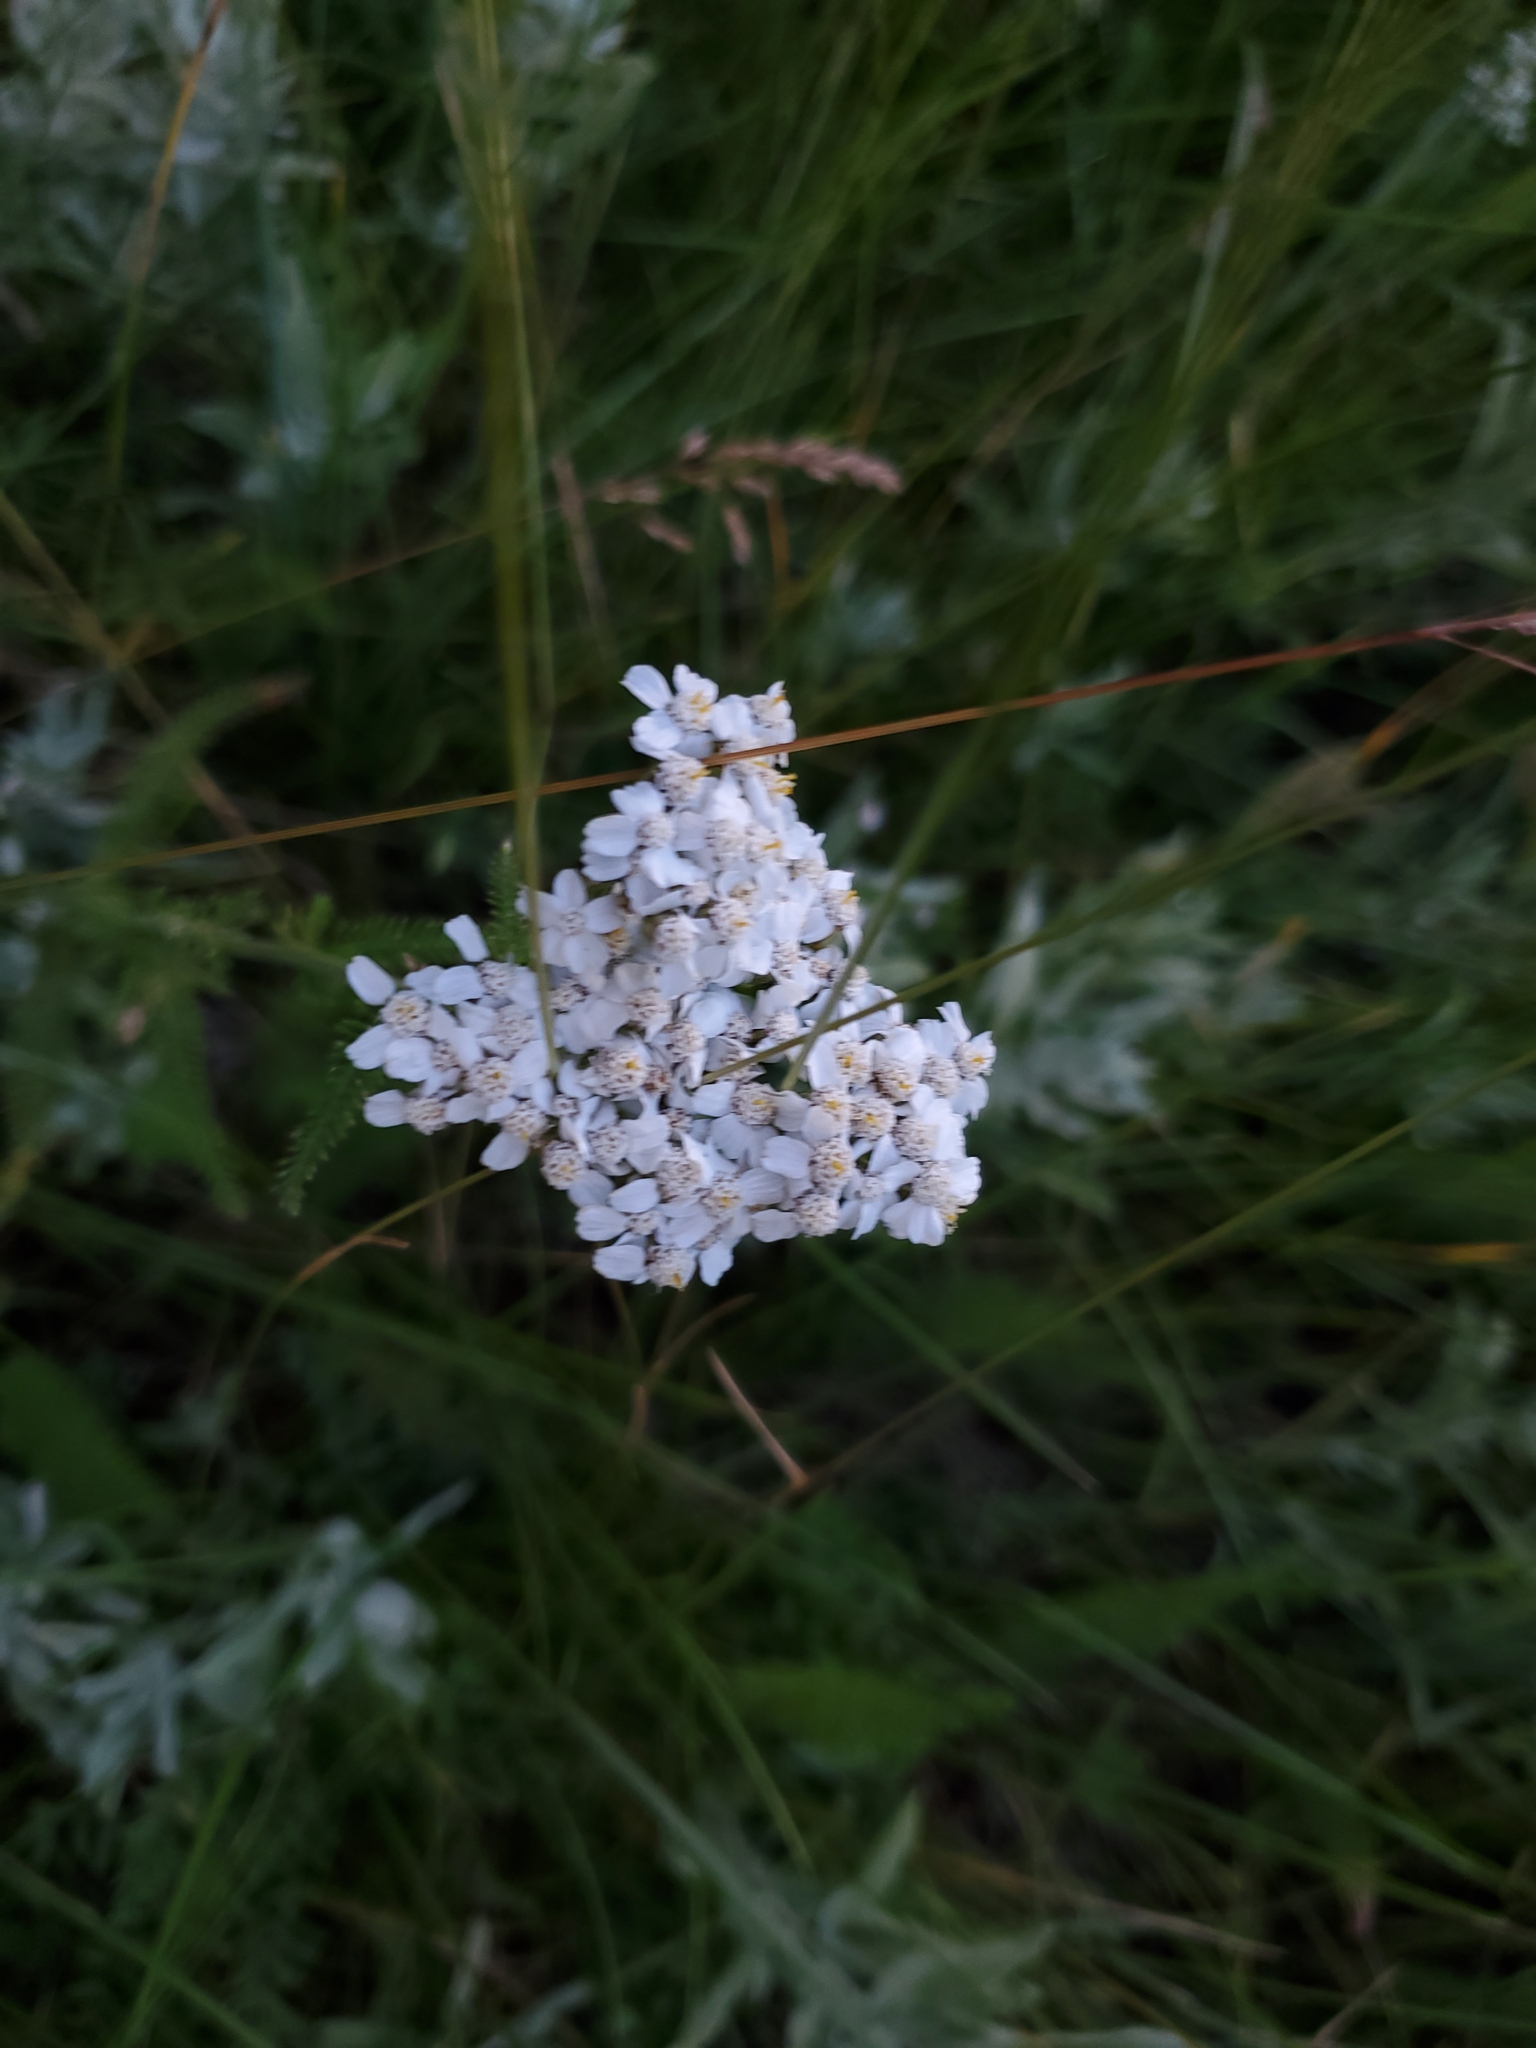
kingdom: Plantae
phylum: Tracheophyta
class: Magnoliopsida
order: Asterales
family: Asteraceae
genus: Achillea
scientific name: Achillea millefolium
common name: Yarrow
